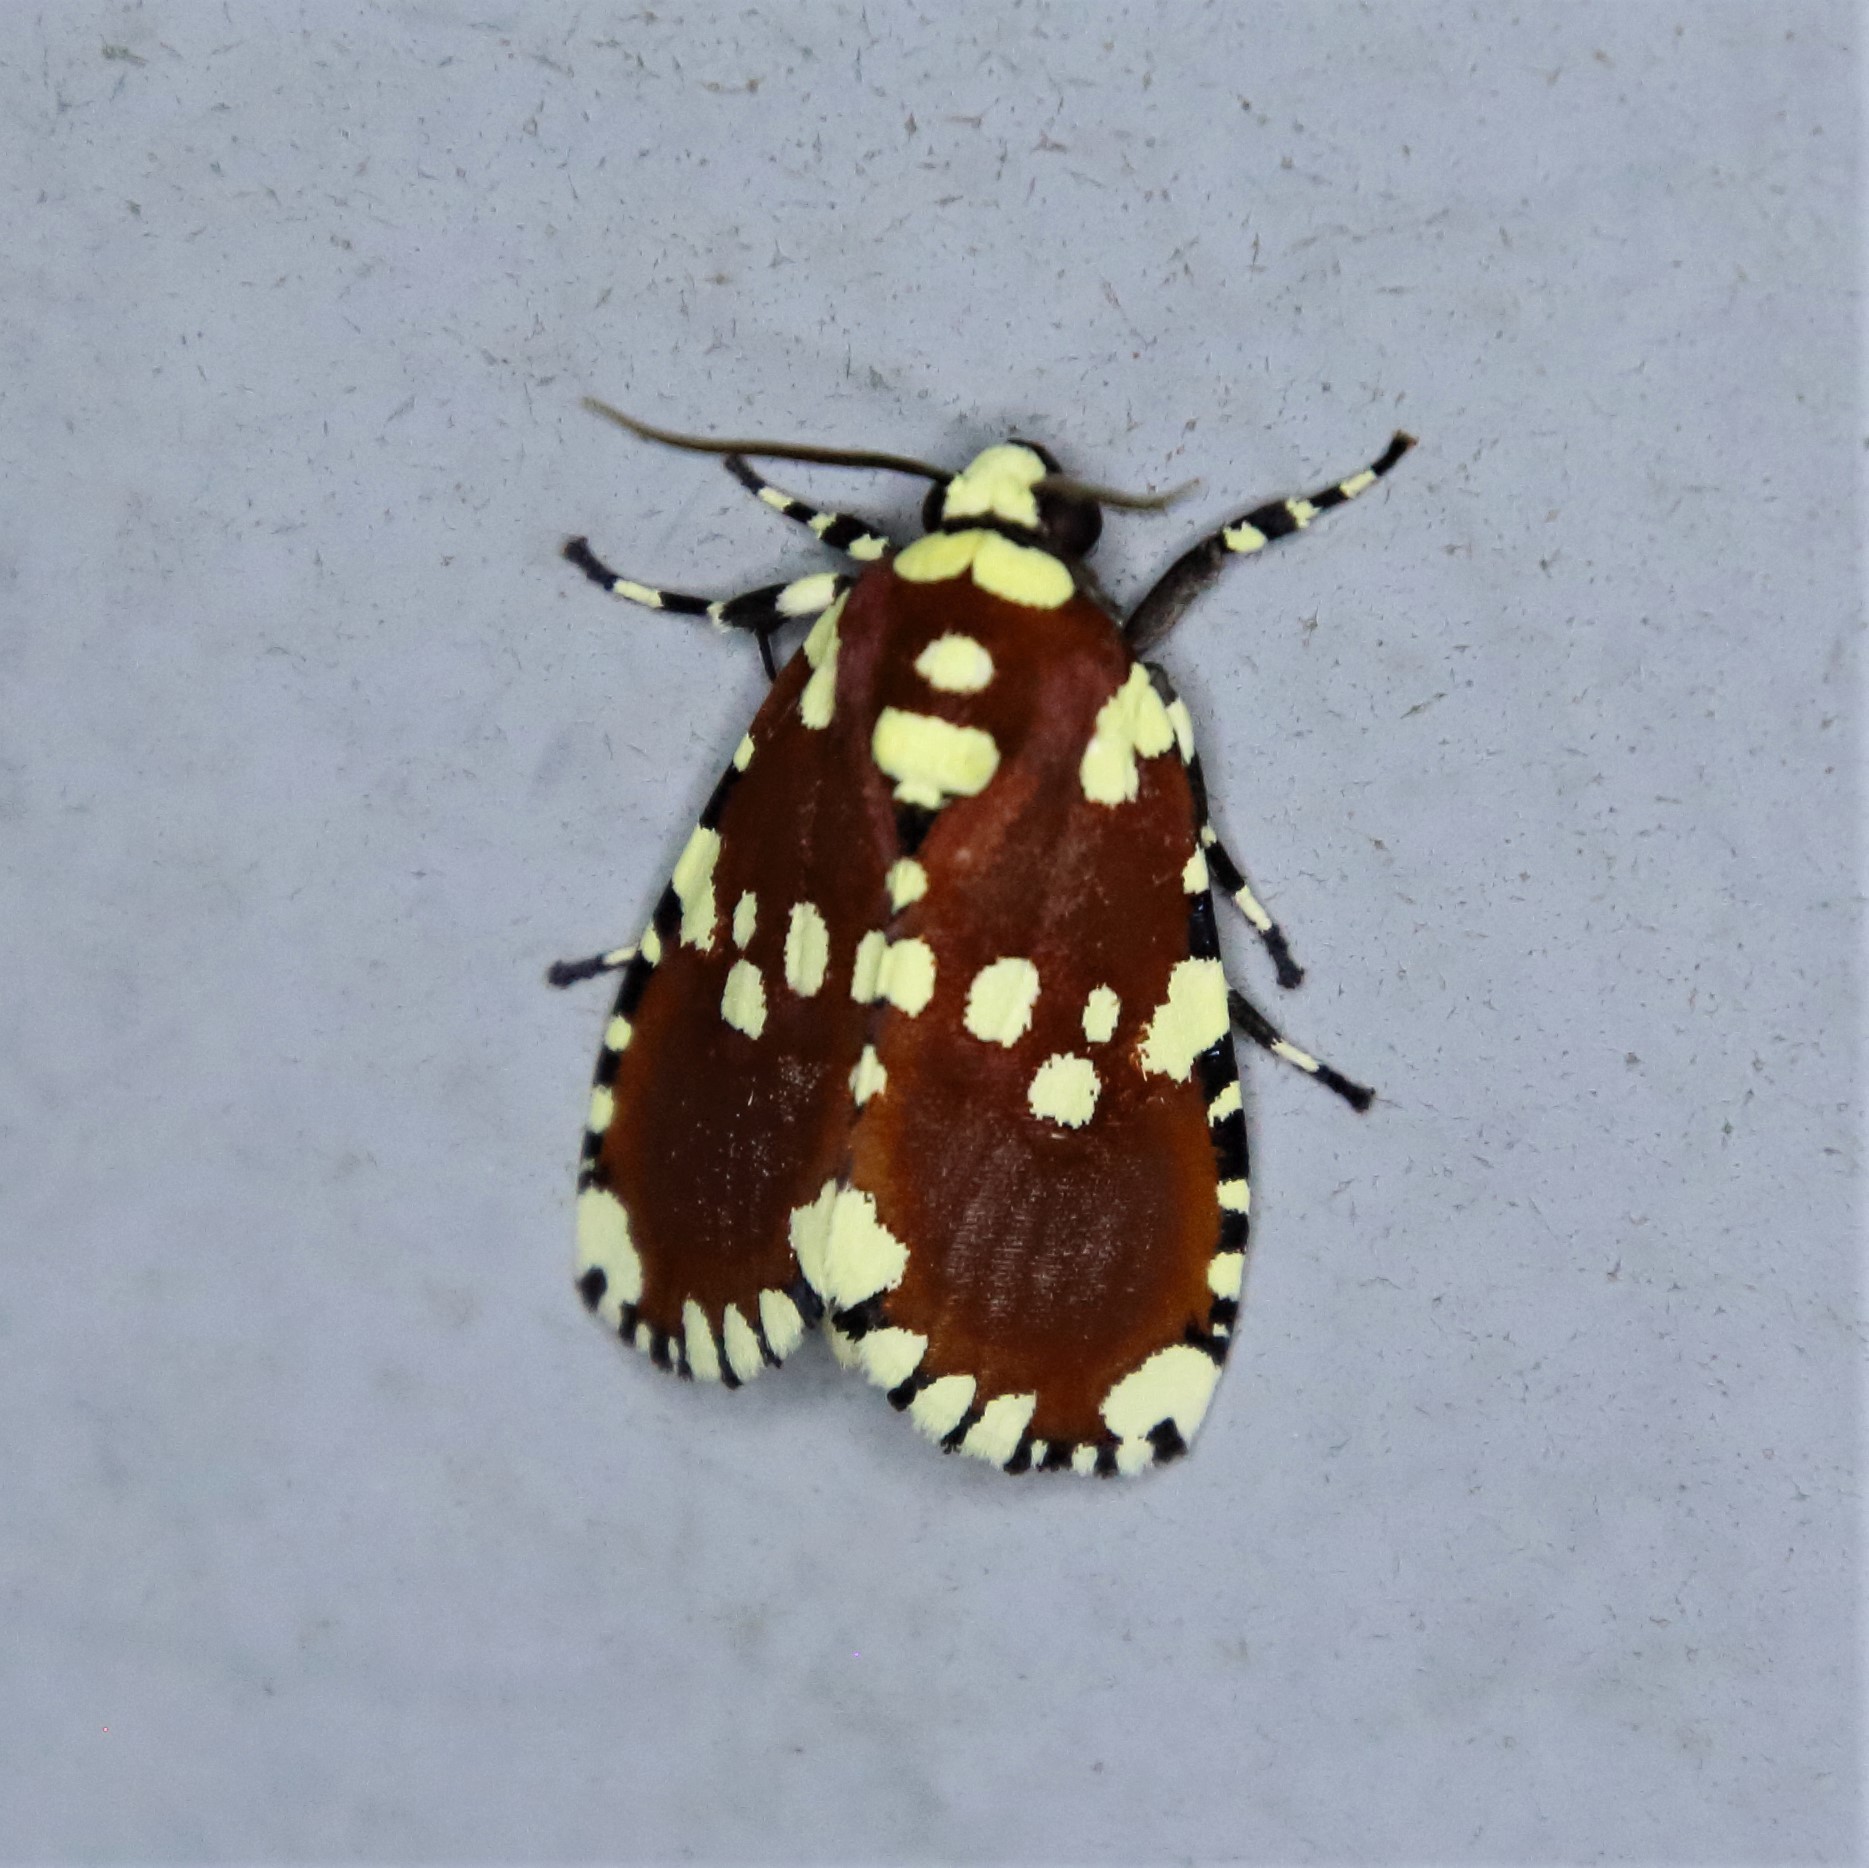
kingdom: Animalia
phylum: Arthropoda
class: Insecta
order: Lepidoptera
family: Noctuidae
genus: Yepcalphis
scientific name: Yepcalphis dilectissima
